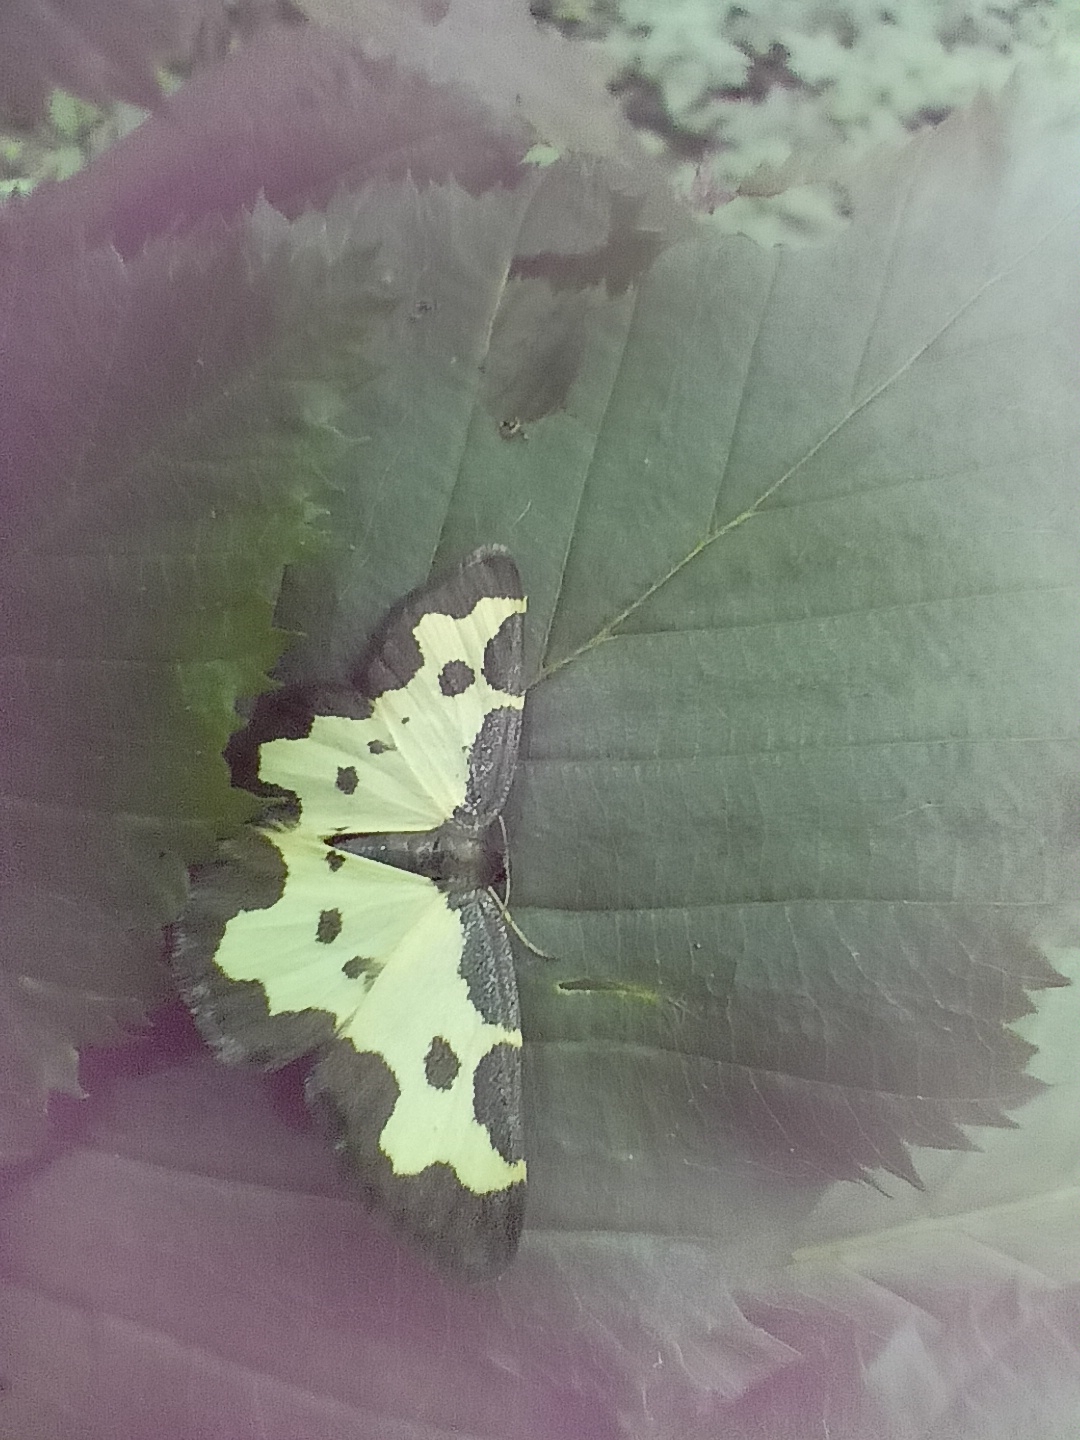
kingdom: Animalia
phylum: Arthropoda
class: Insecta
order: Lepidoptera
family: Geometridae
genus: Lomaspilis
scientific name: Lomaspilis marginata
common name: Clouded border
